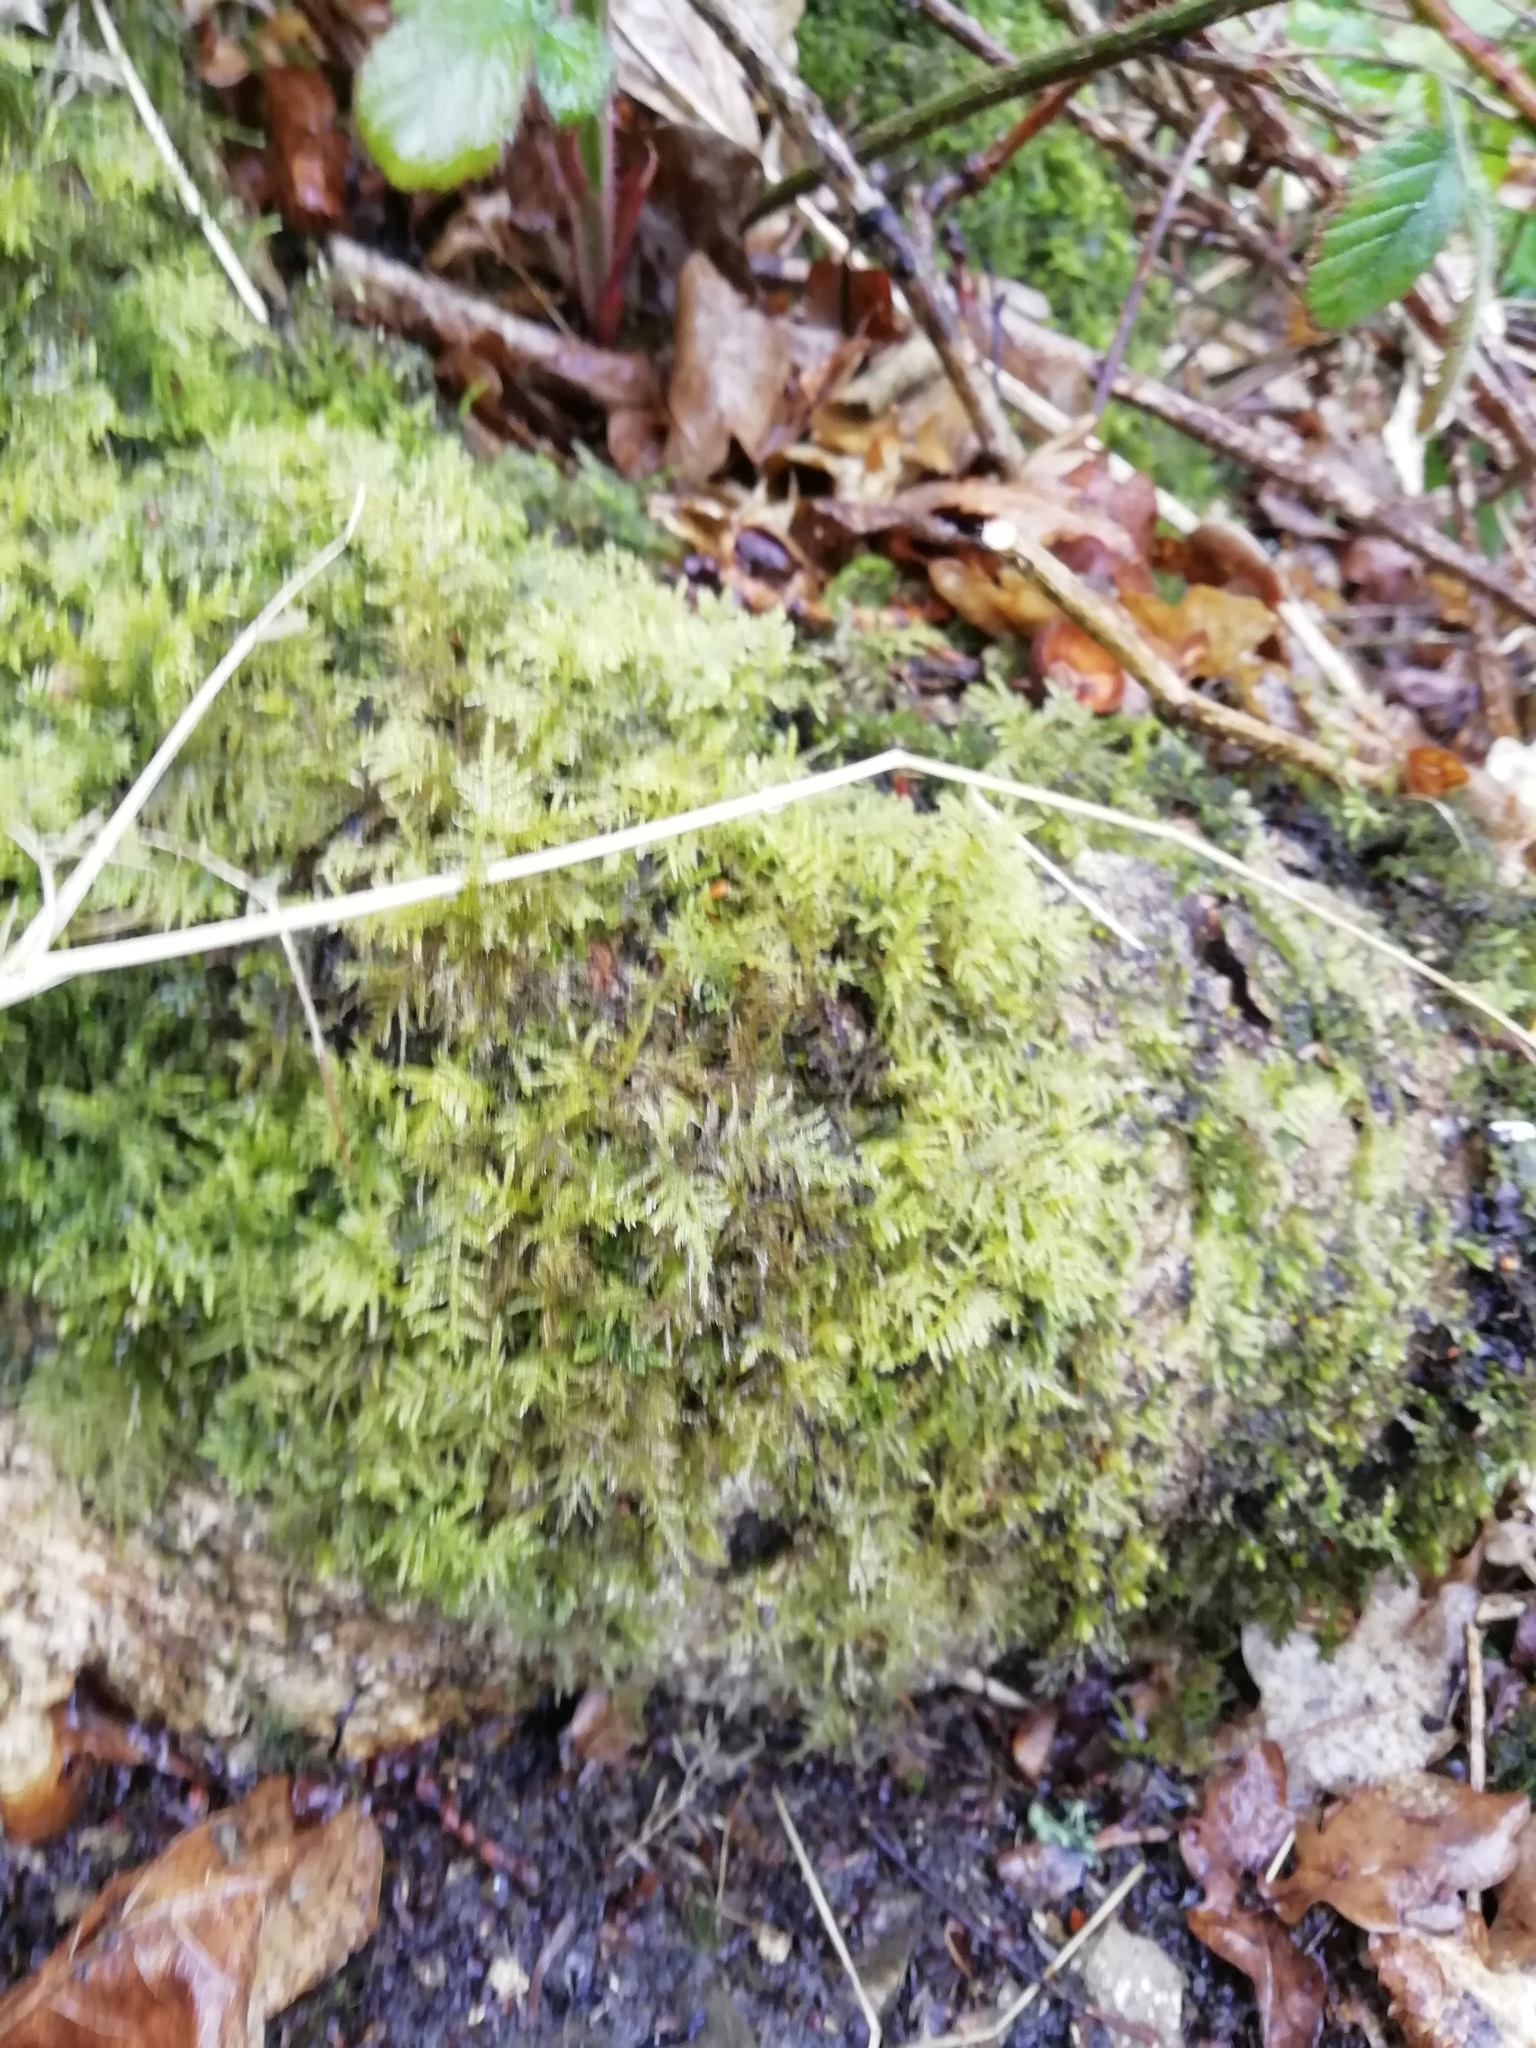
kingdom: Plantae
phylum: Bryophyta
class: Bryopsida
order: Hypnales
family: Brachytheciaceae
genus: Kindbergia
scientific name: Kindbergia praelonga
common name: Slender beaked moss
